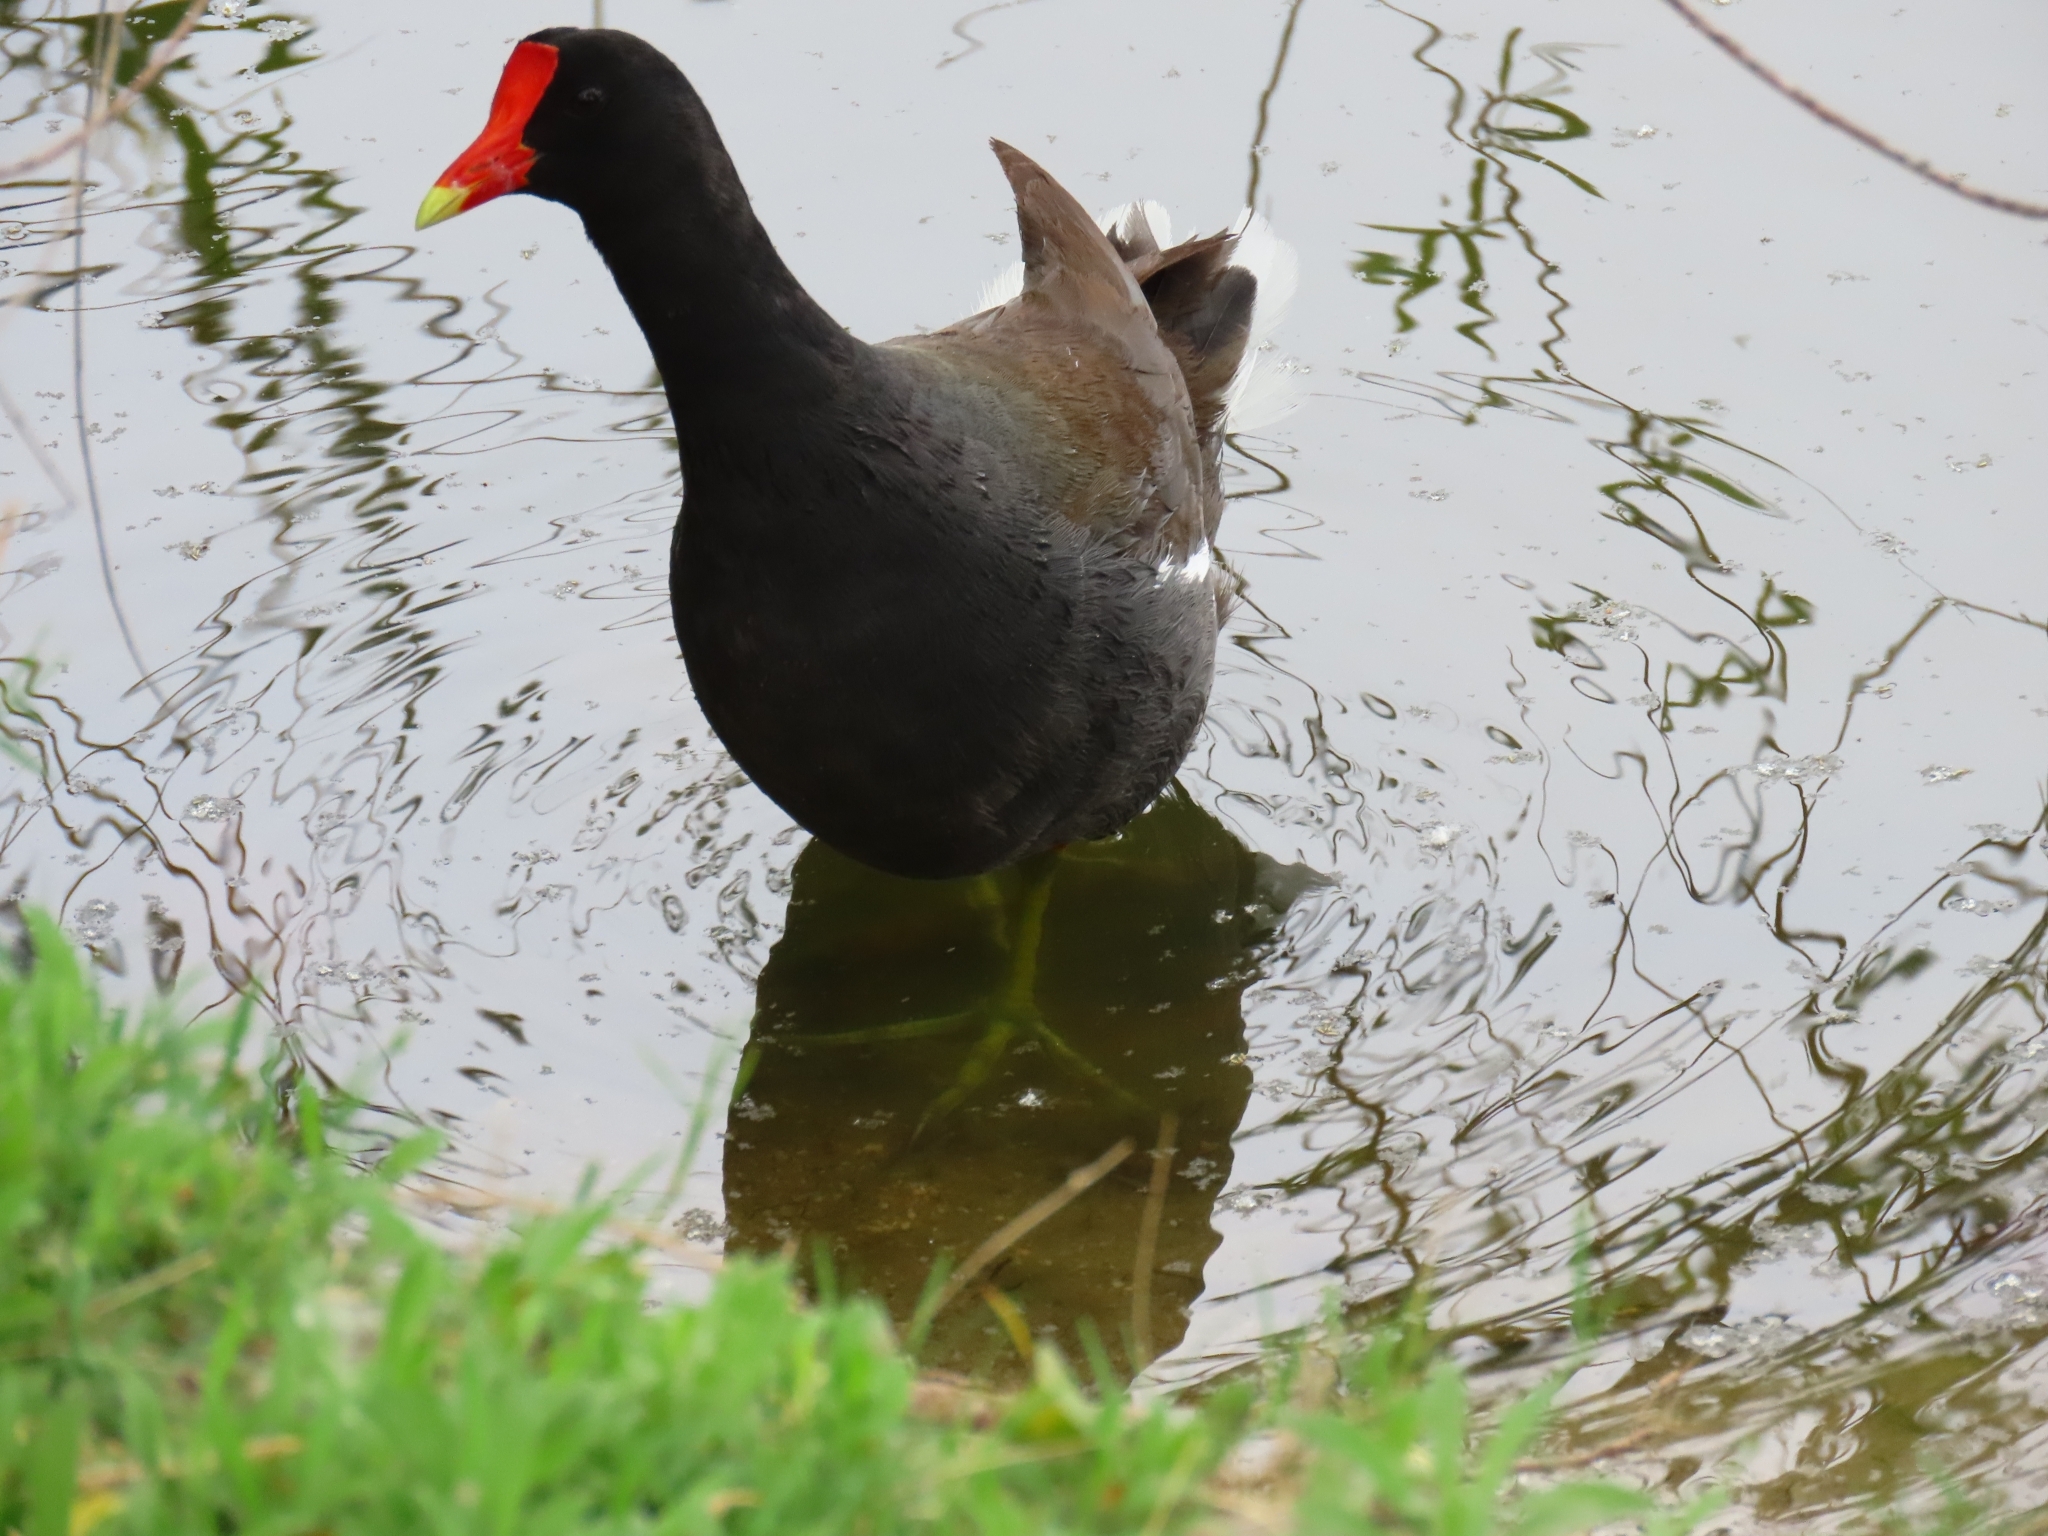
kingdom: Animalia
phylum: Chordata
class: Aves
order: Gruiformes
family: Rallidae
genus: Gallinula
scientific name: Gallinula chloropus
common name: Common moorhen
